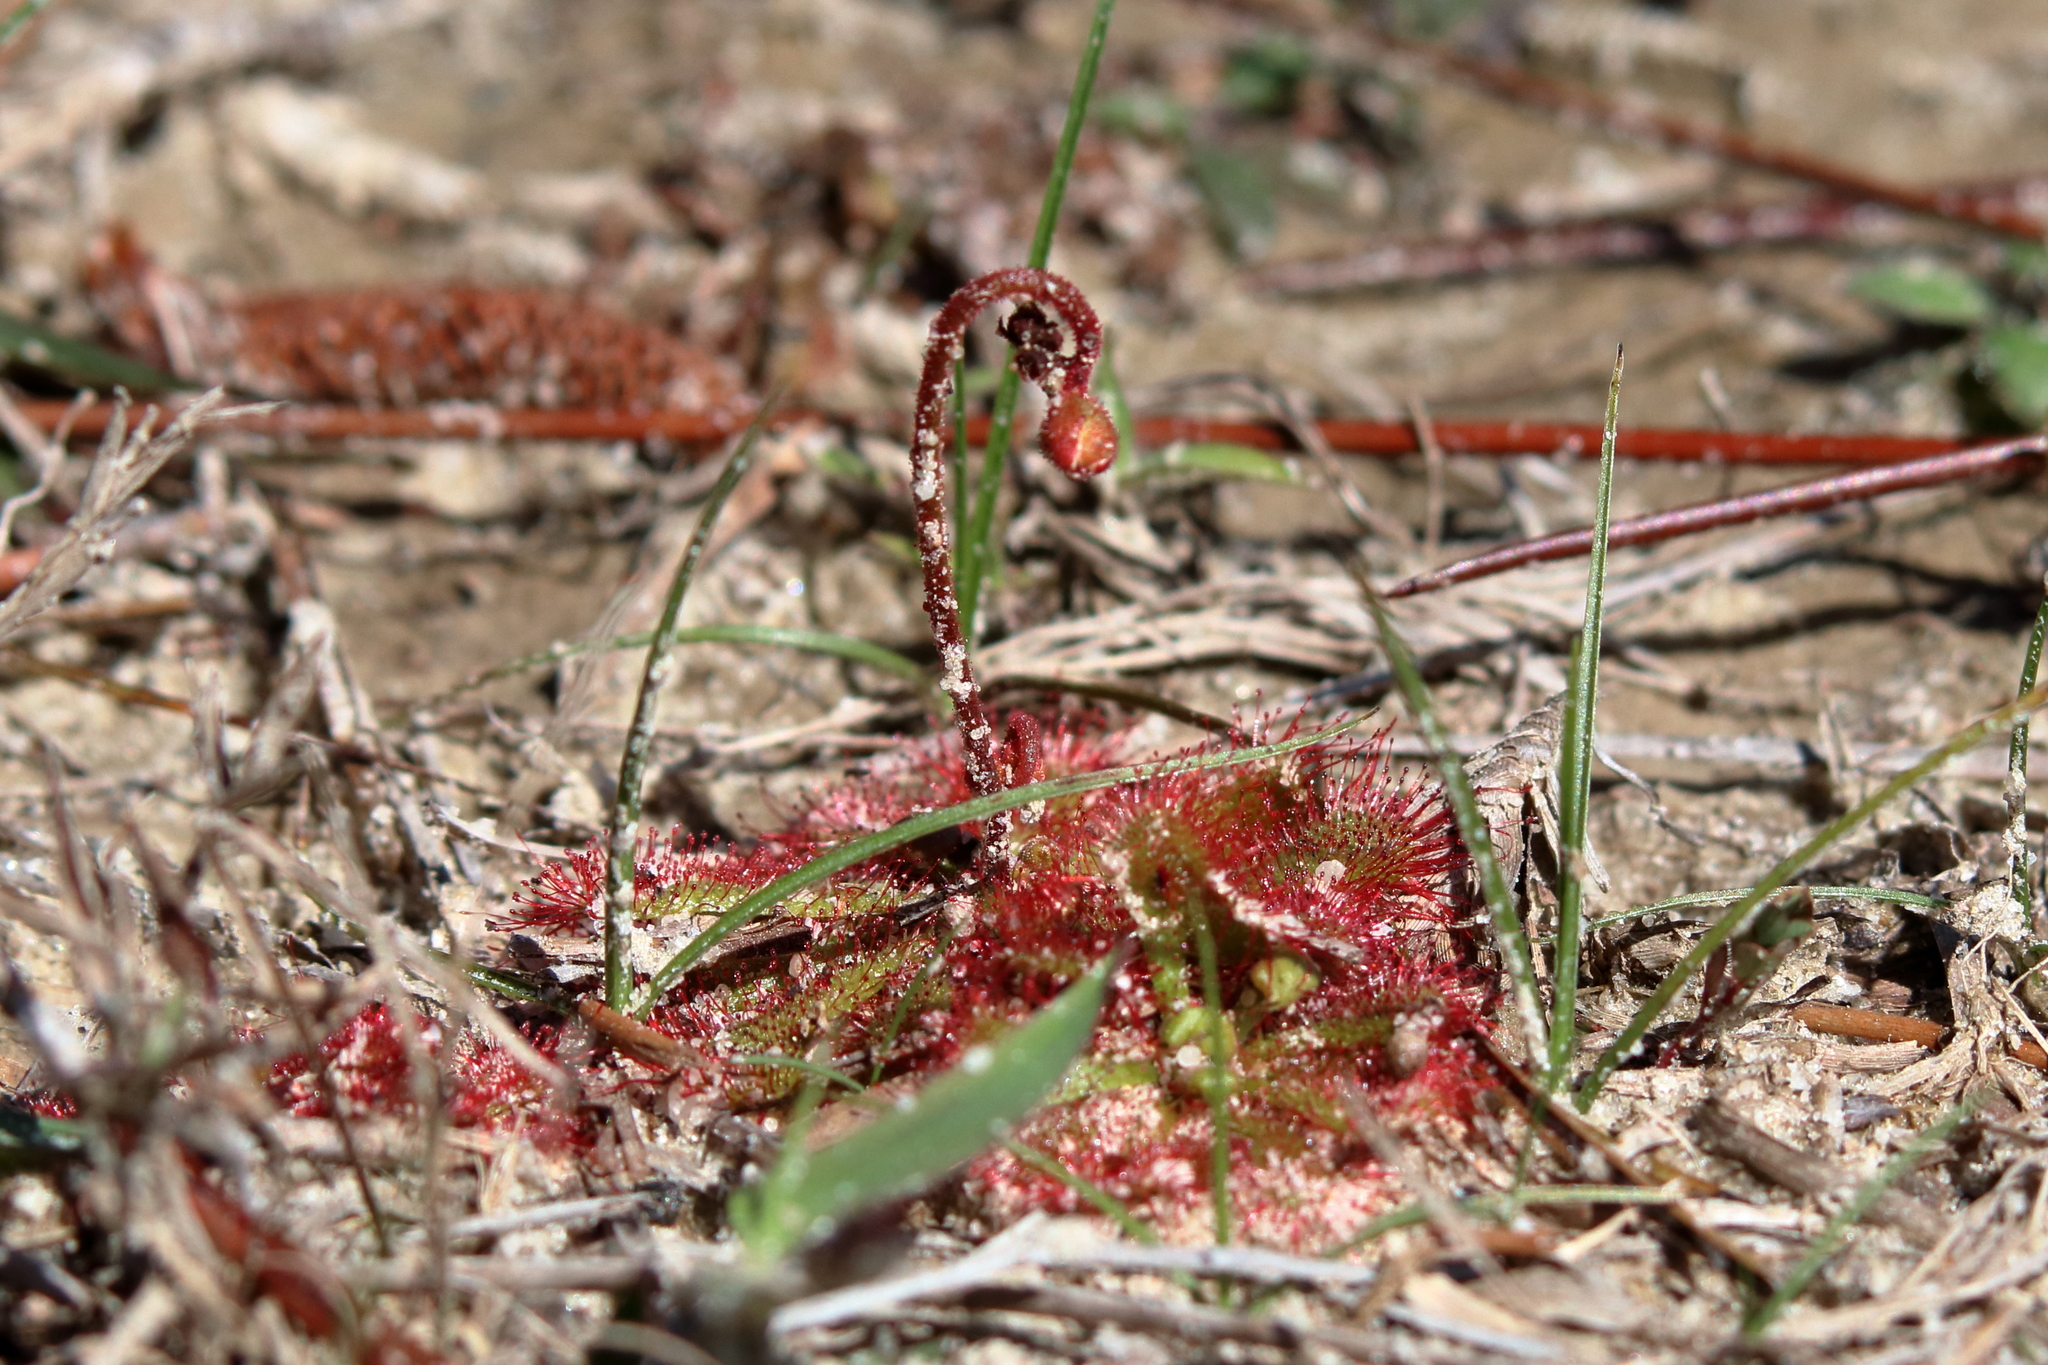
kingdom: Plantae
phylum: Tracheophyta
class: Magnoliopsida
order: Caryophyllales
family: Droseraceae
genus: Drosera
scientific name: Drosera brevifolia
